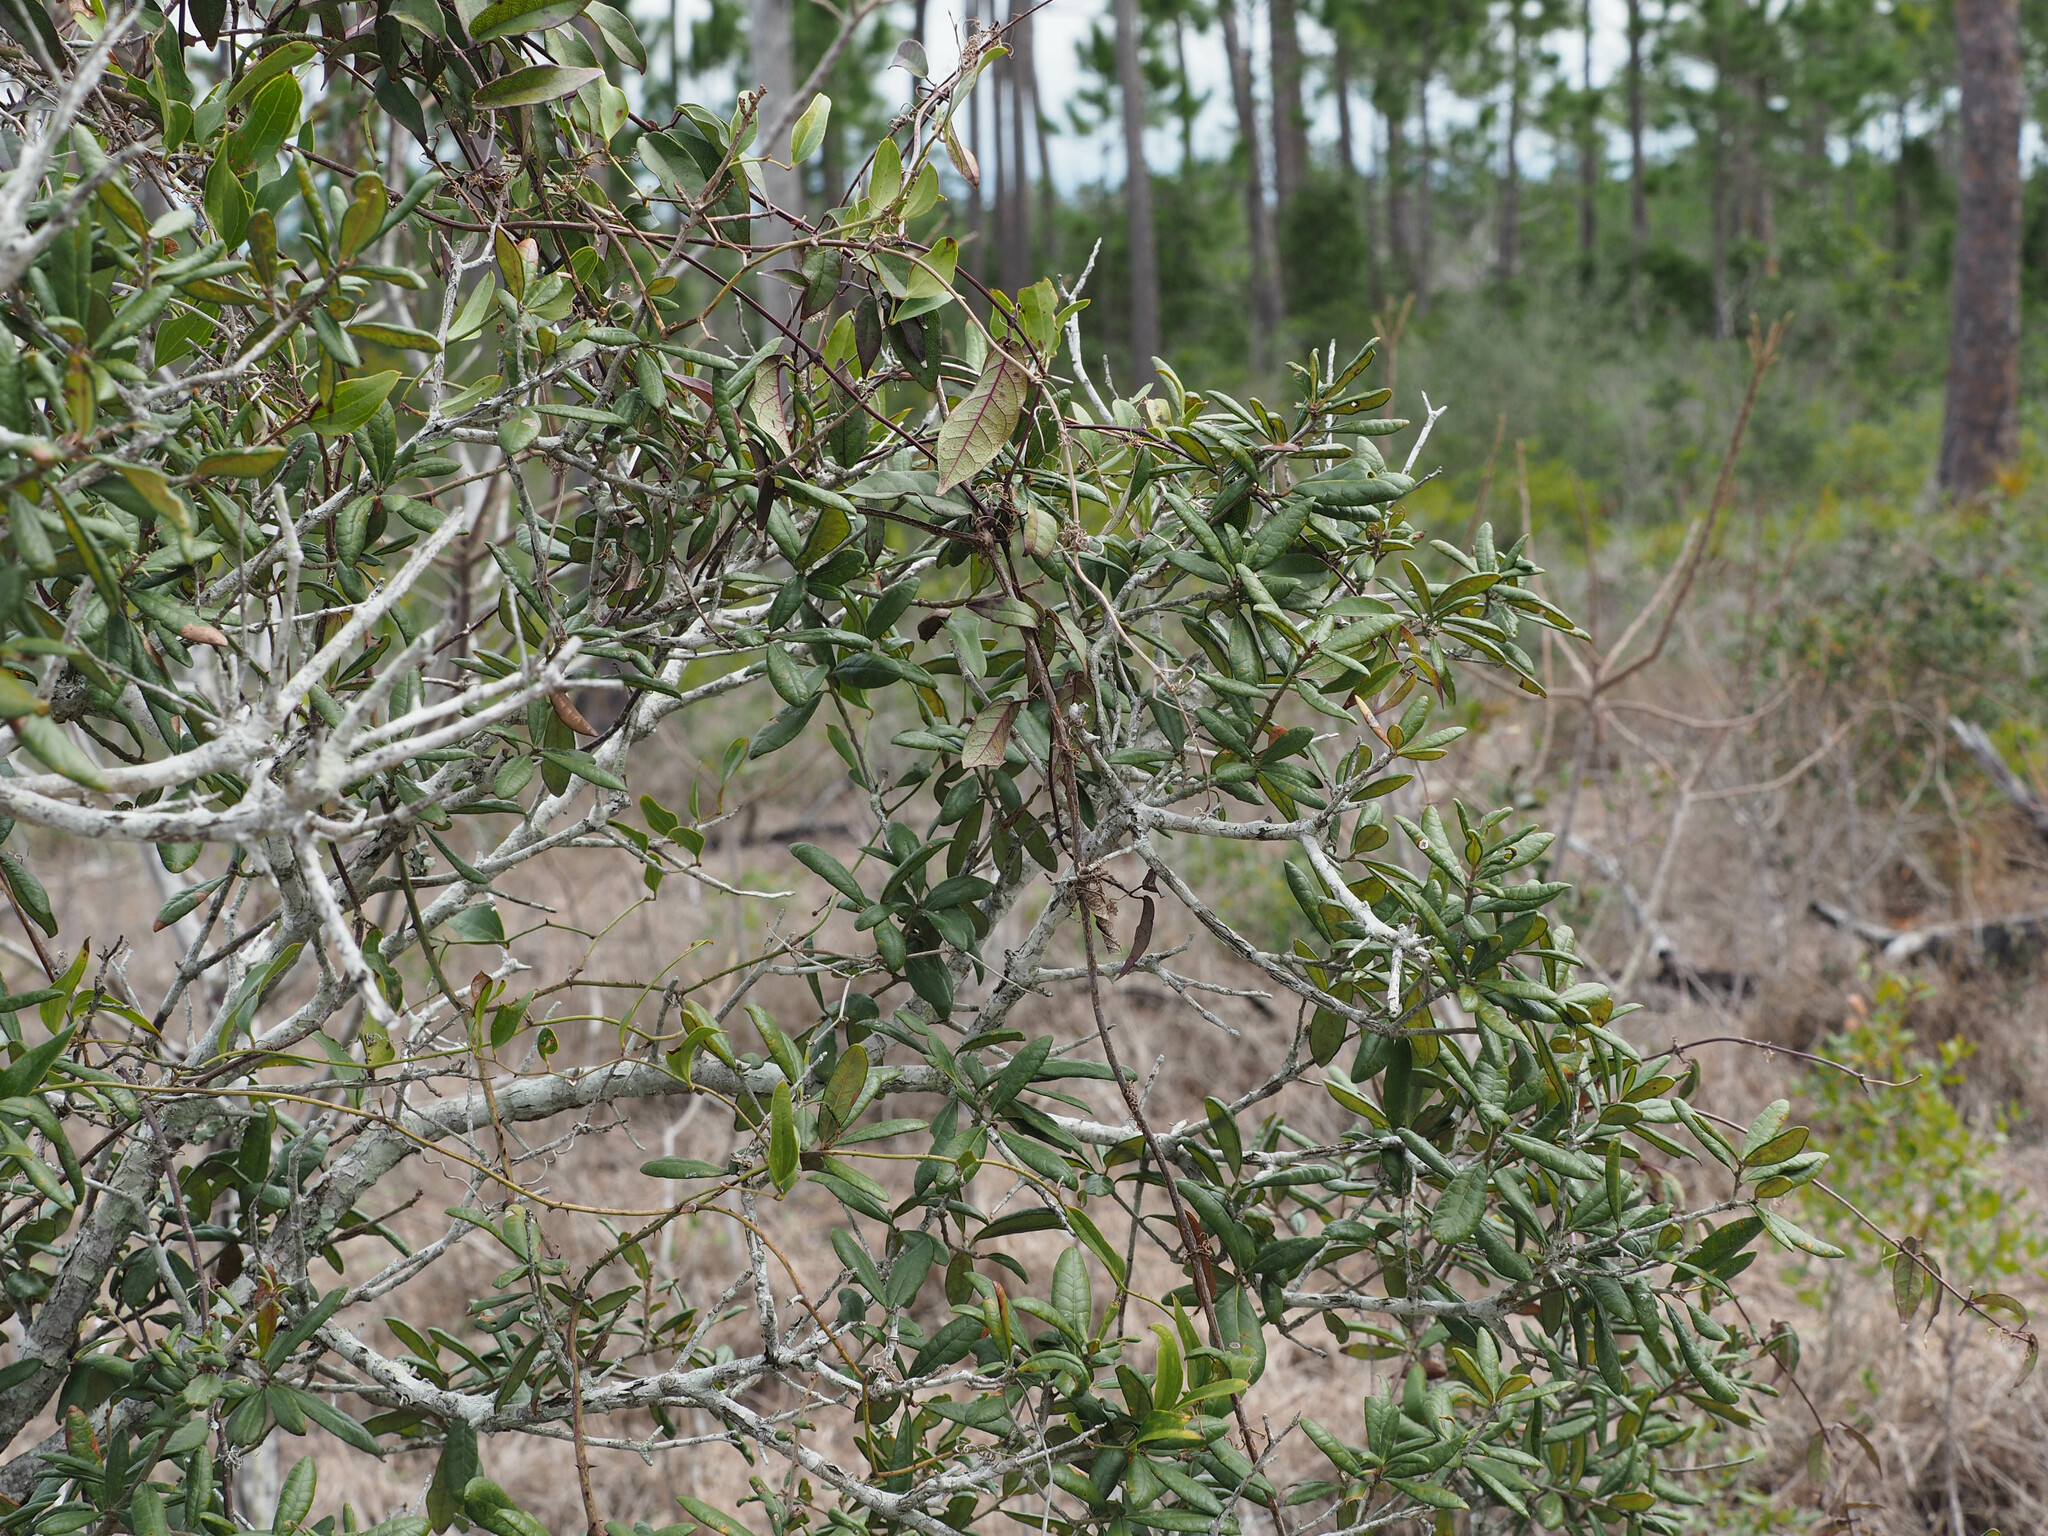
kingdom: Plantae
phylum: Tracheophyta
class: Magnoliopsida
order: Fagales
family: Fagaceae
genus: Quercus
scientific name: Quercus geminata
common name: Sand live oak
